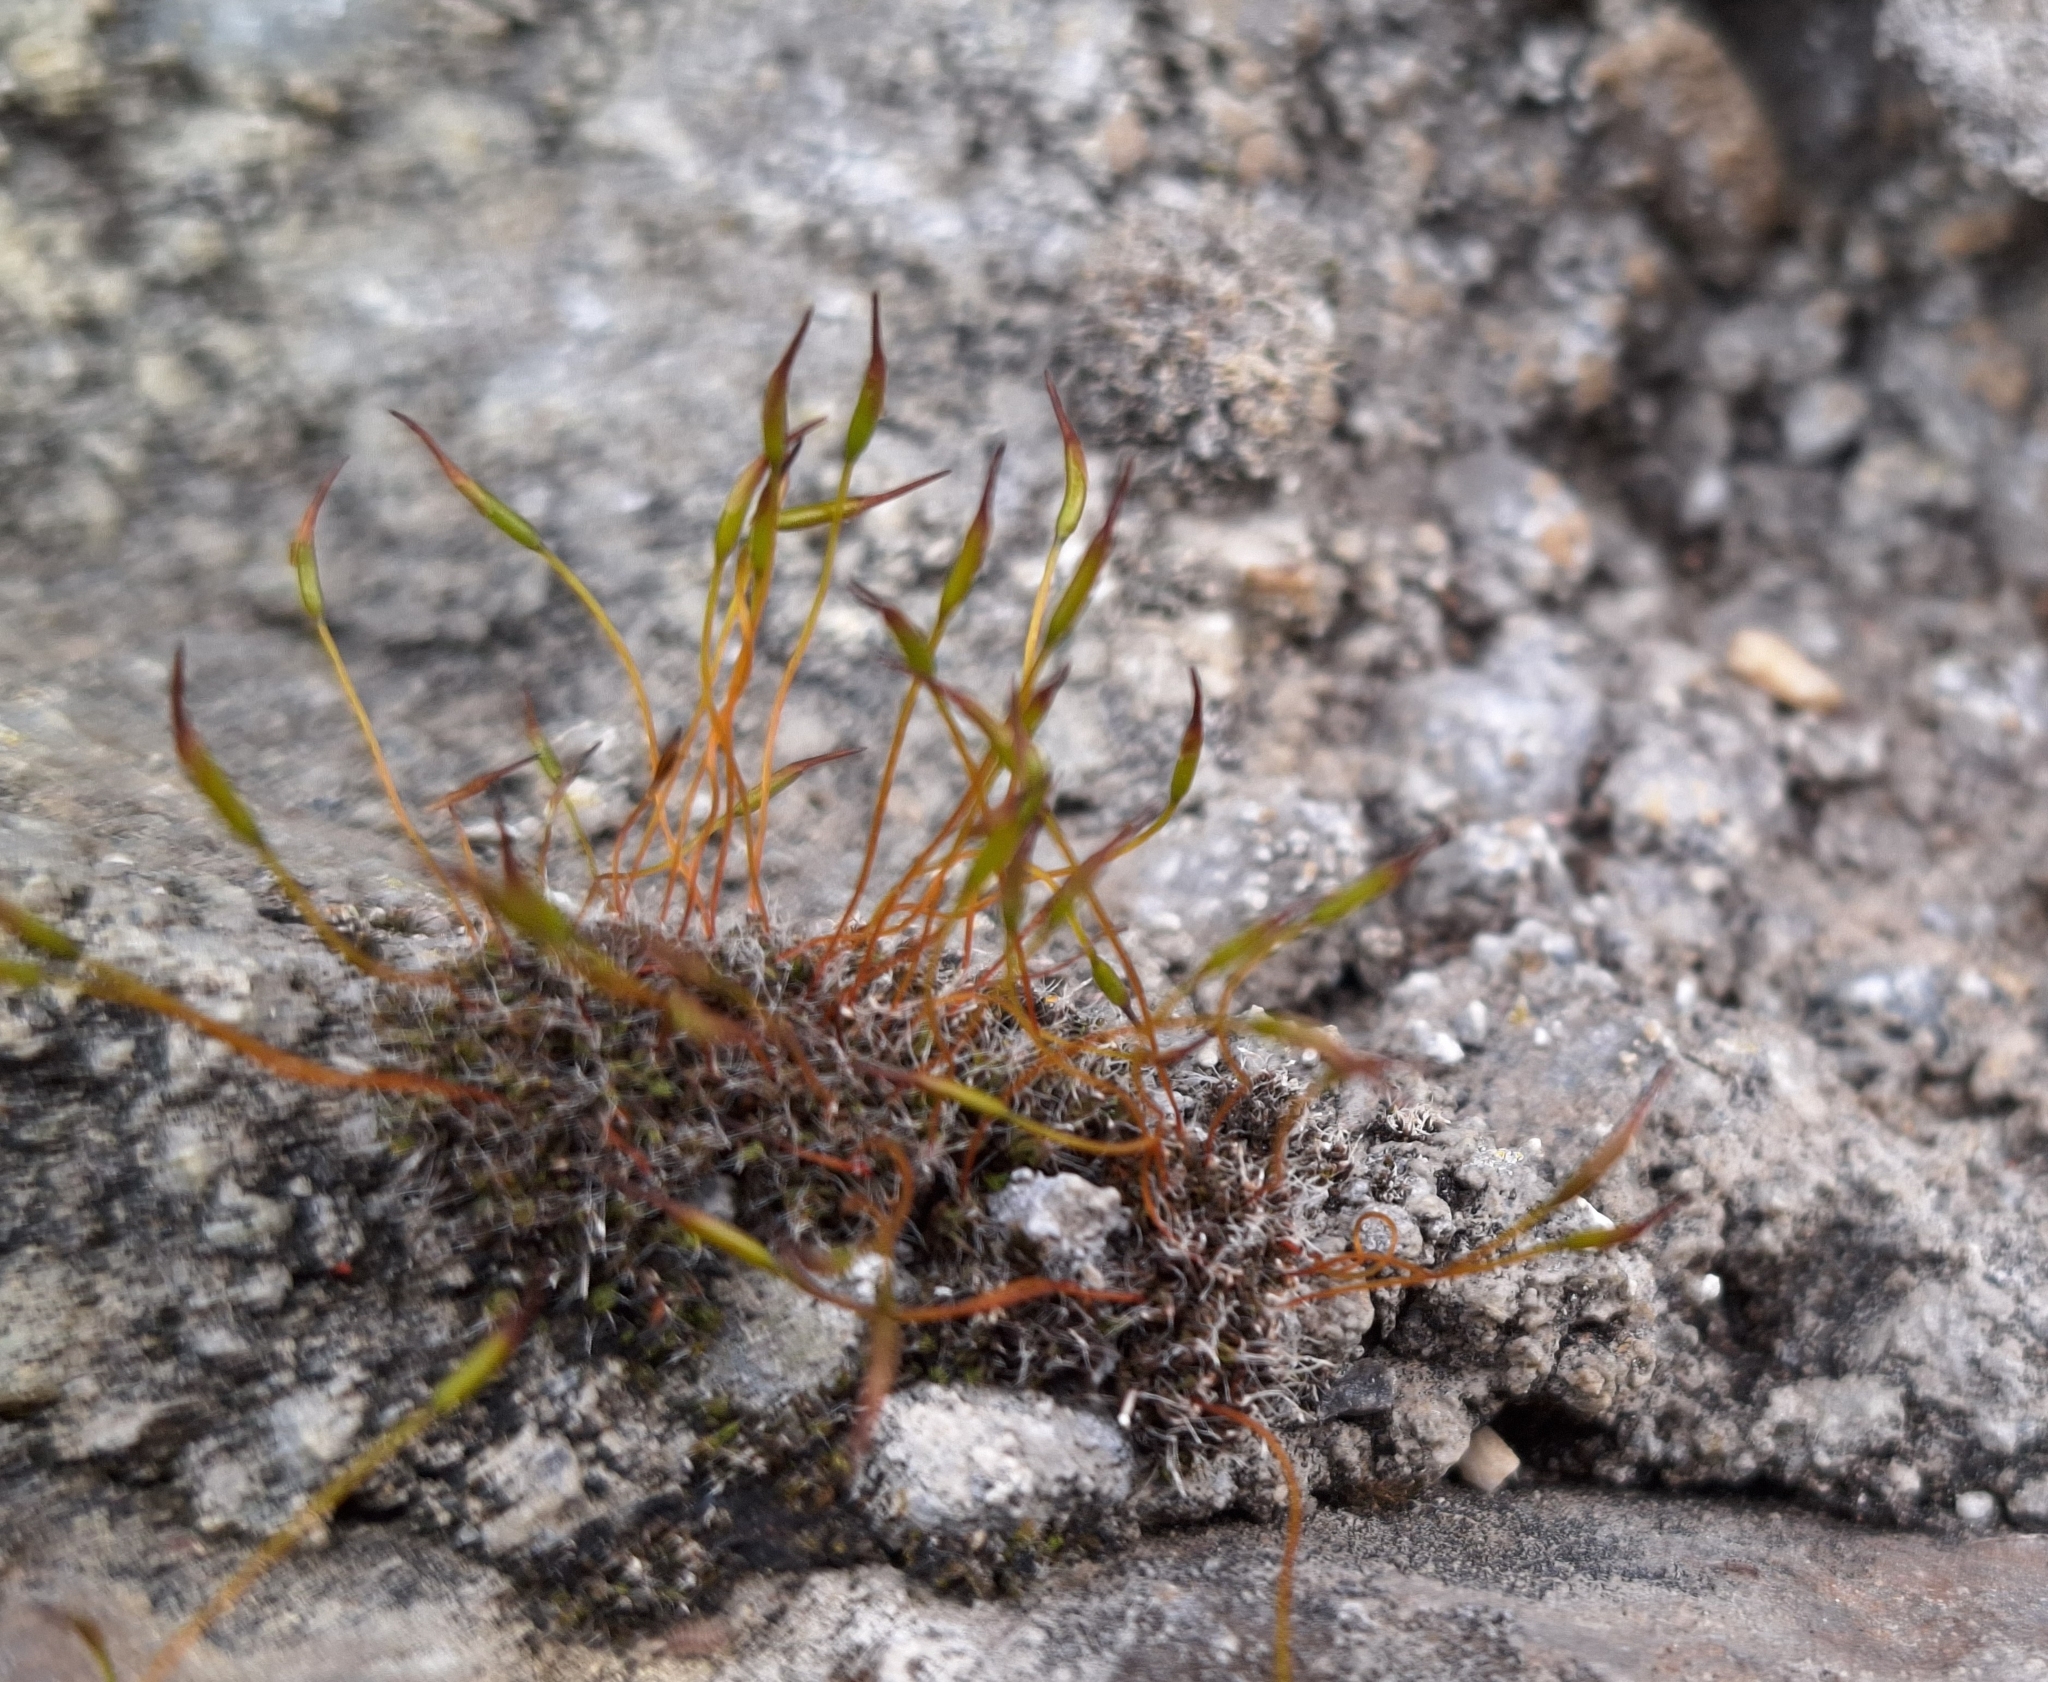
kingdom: Plantae
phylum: Bryophyta
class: Bryopsida
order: Pottiales
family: Pottiaceae
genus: Tortula
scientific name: Tortula muralis
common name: Wall screw-moss
